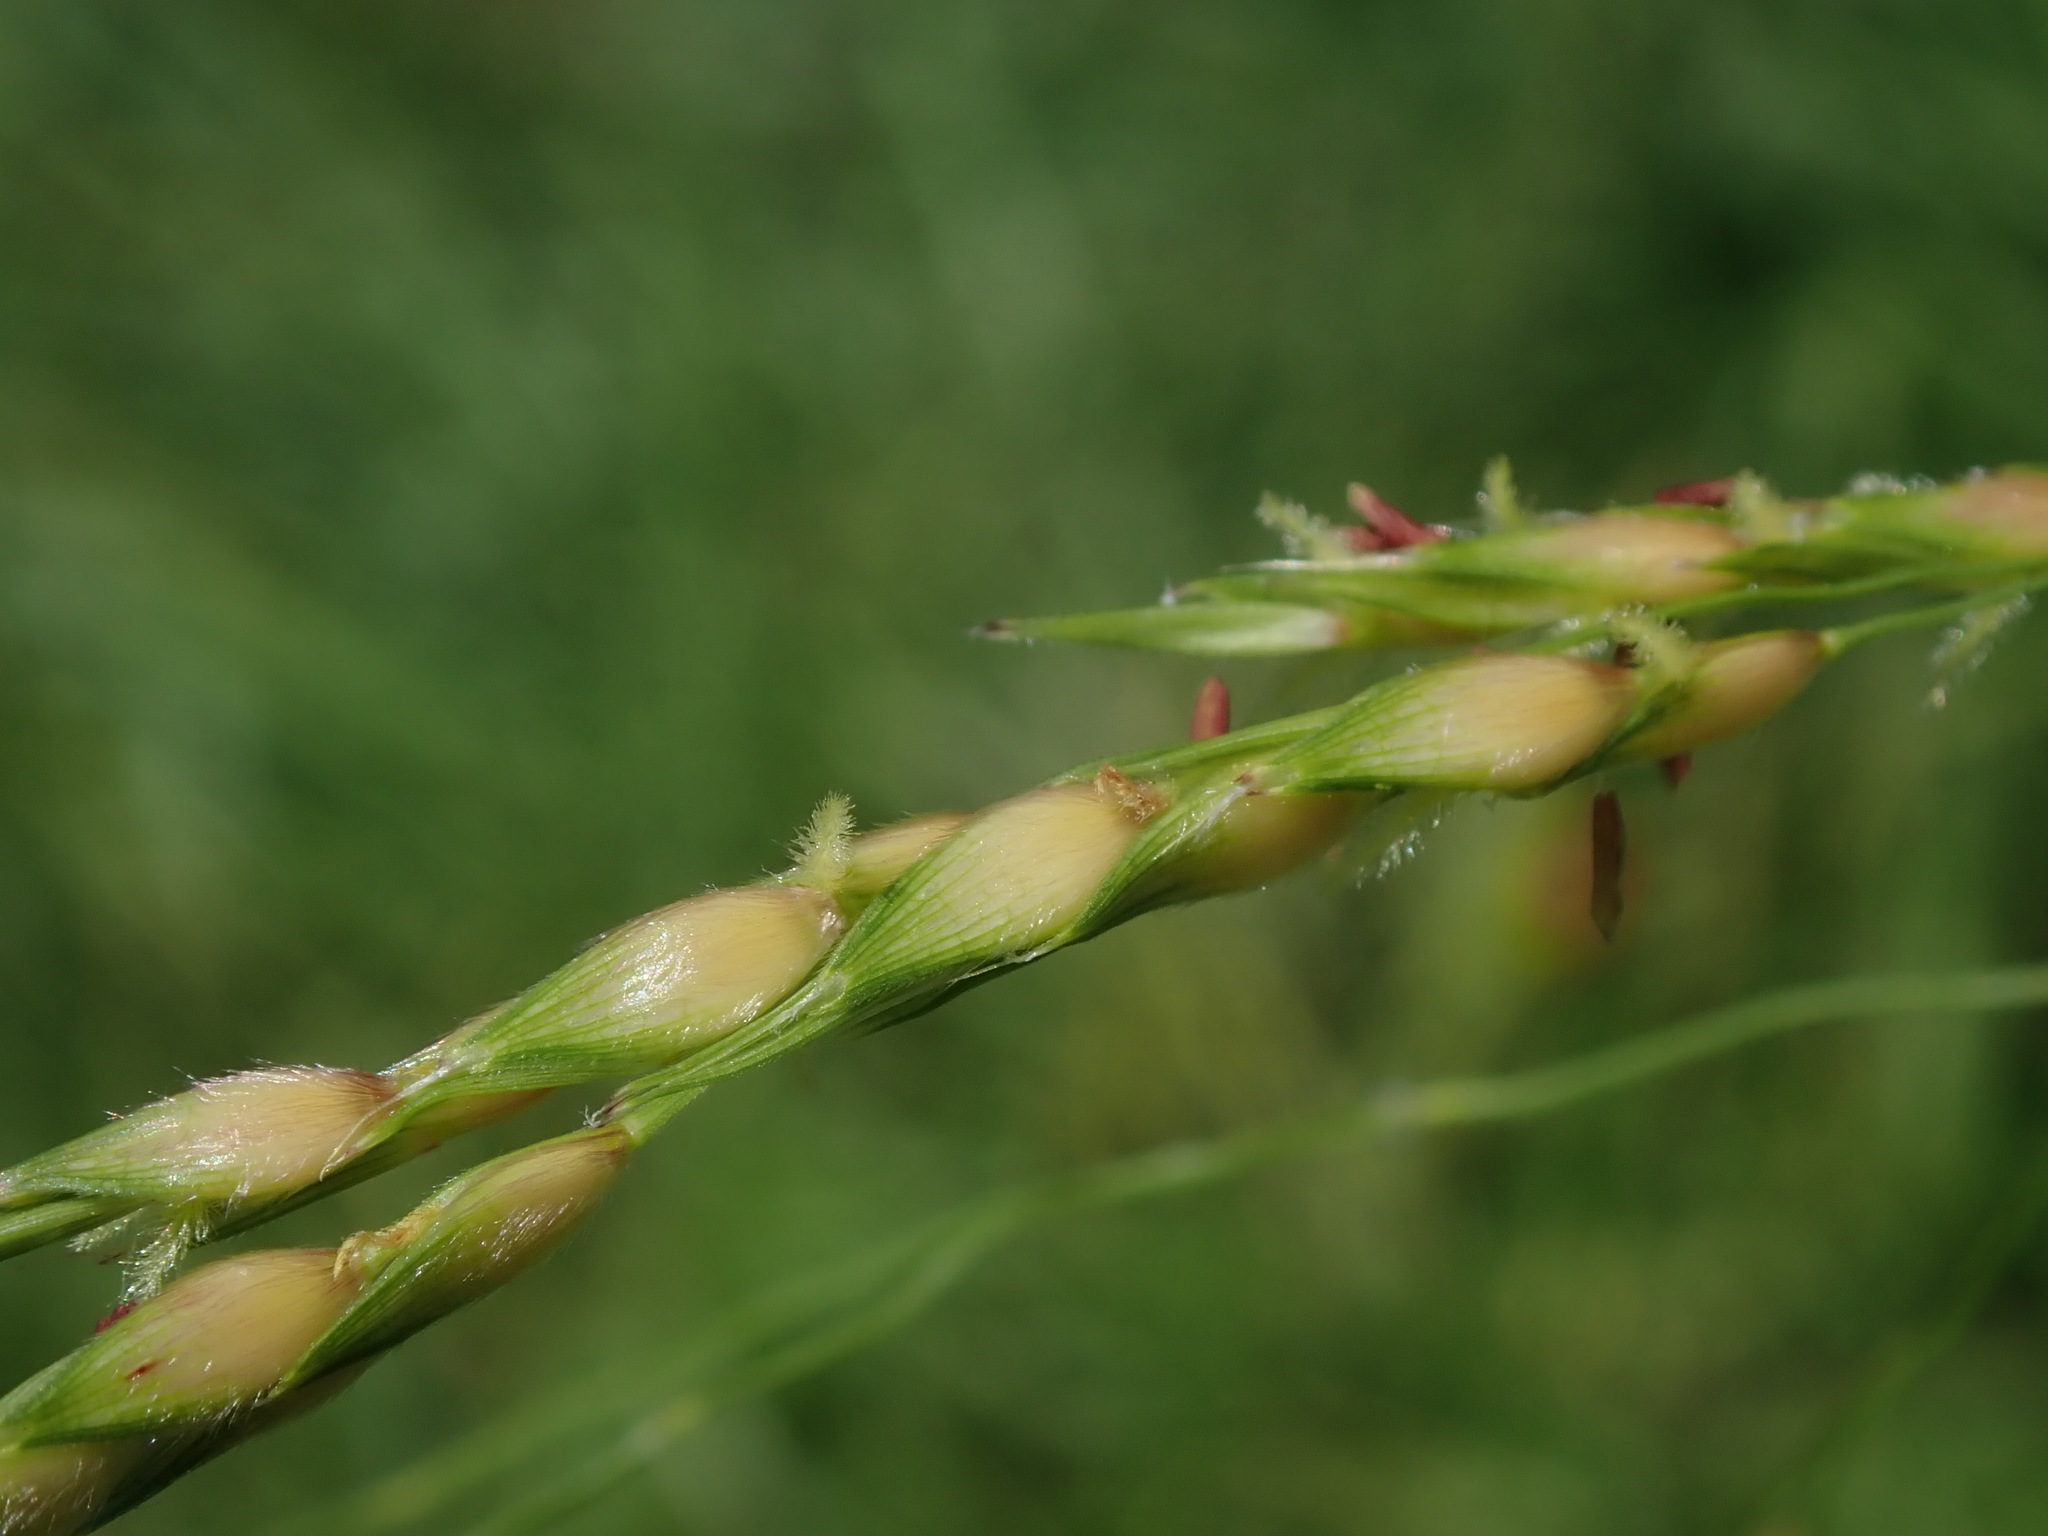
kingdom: Plantae
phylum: Tracheophyta
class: Liliopsida
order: Poales
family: Poaceae
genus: Sorghum
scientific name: Sorghum halepense
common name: Johnson-grass
